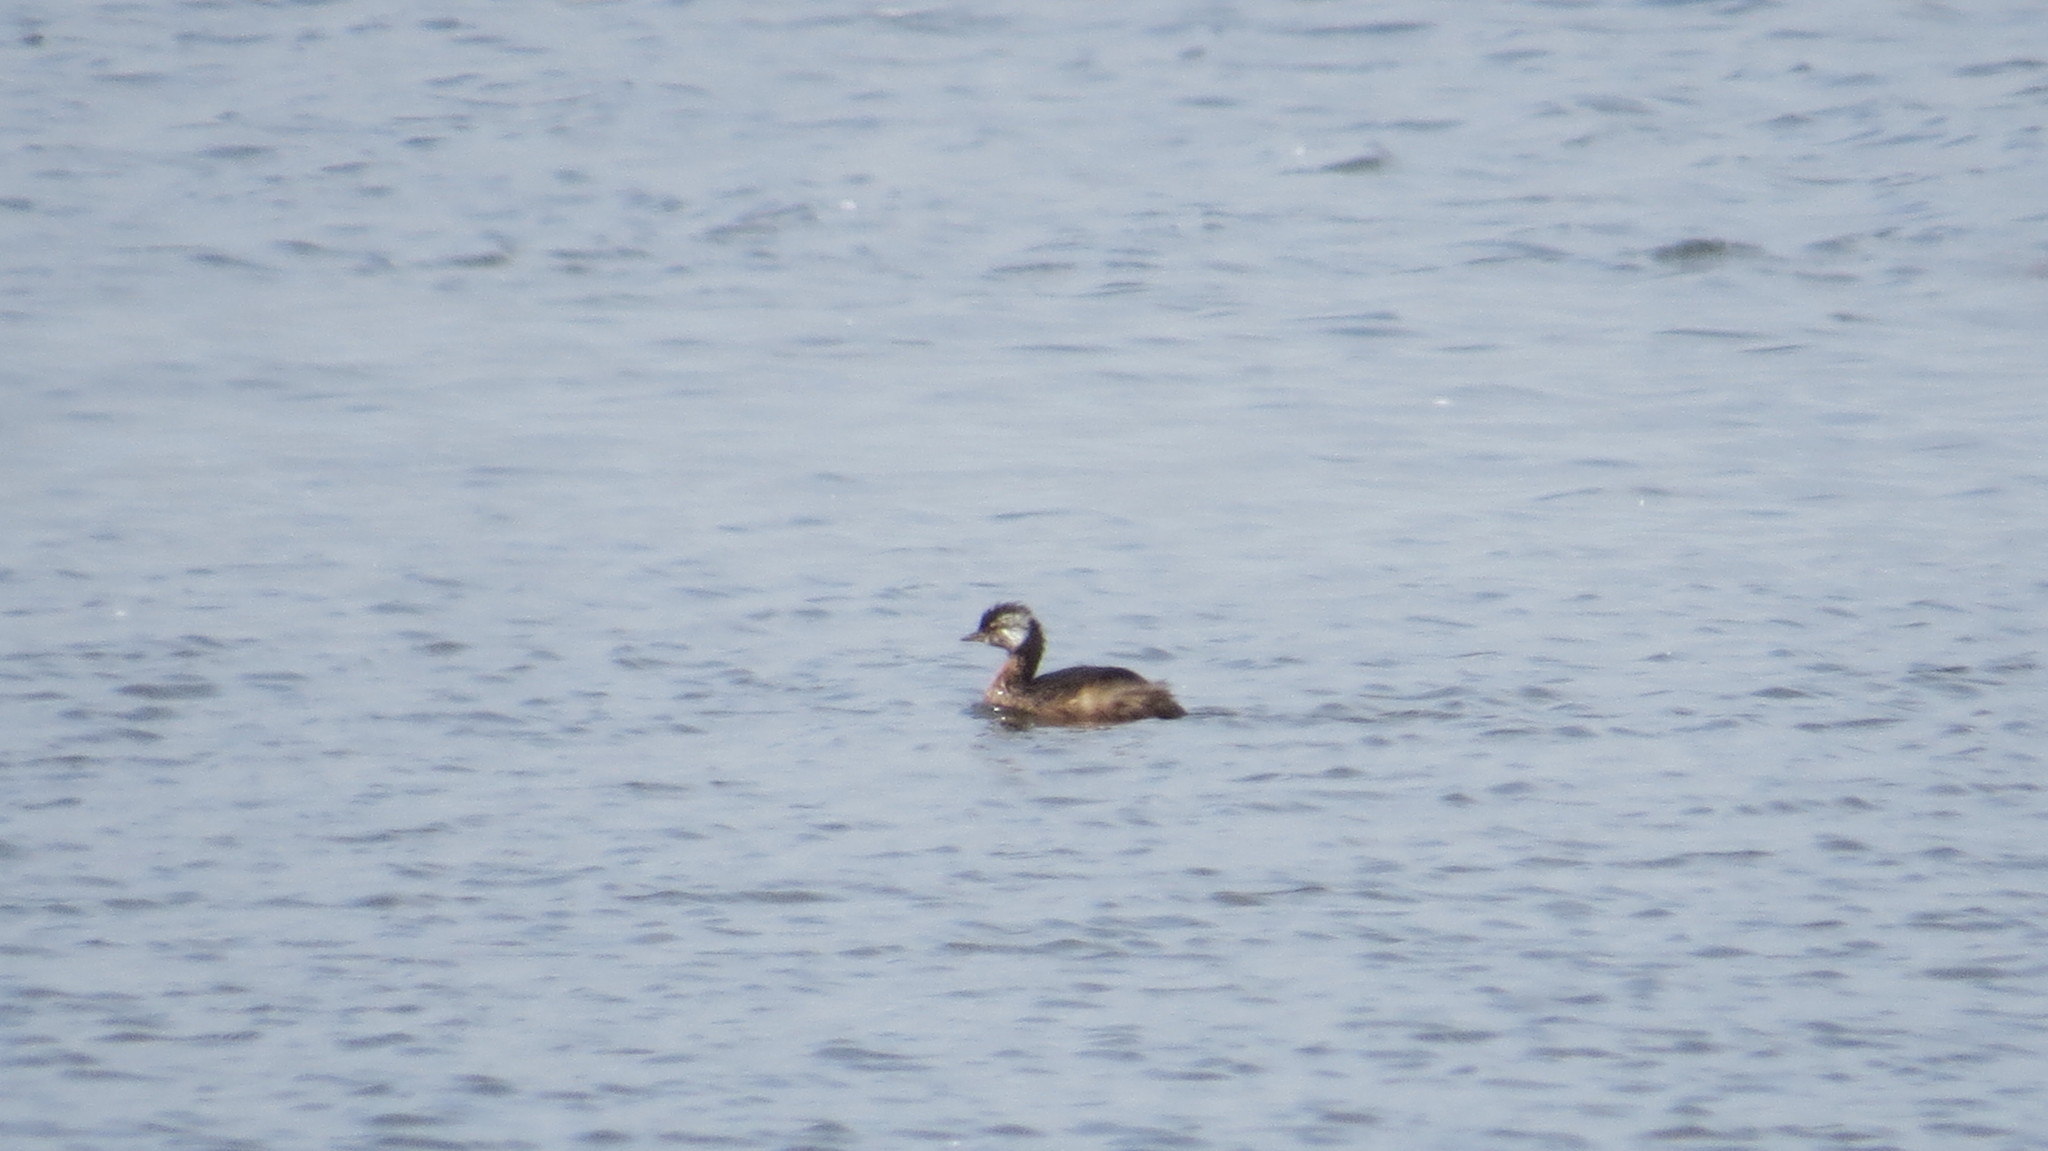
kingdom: Animalia
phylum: Chordata
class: Aves
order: Podicipediformes
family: Podicipedidae
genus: Rollandia
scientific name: Rollandia rolland
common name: White-tufted grebe
